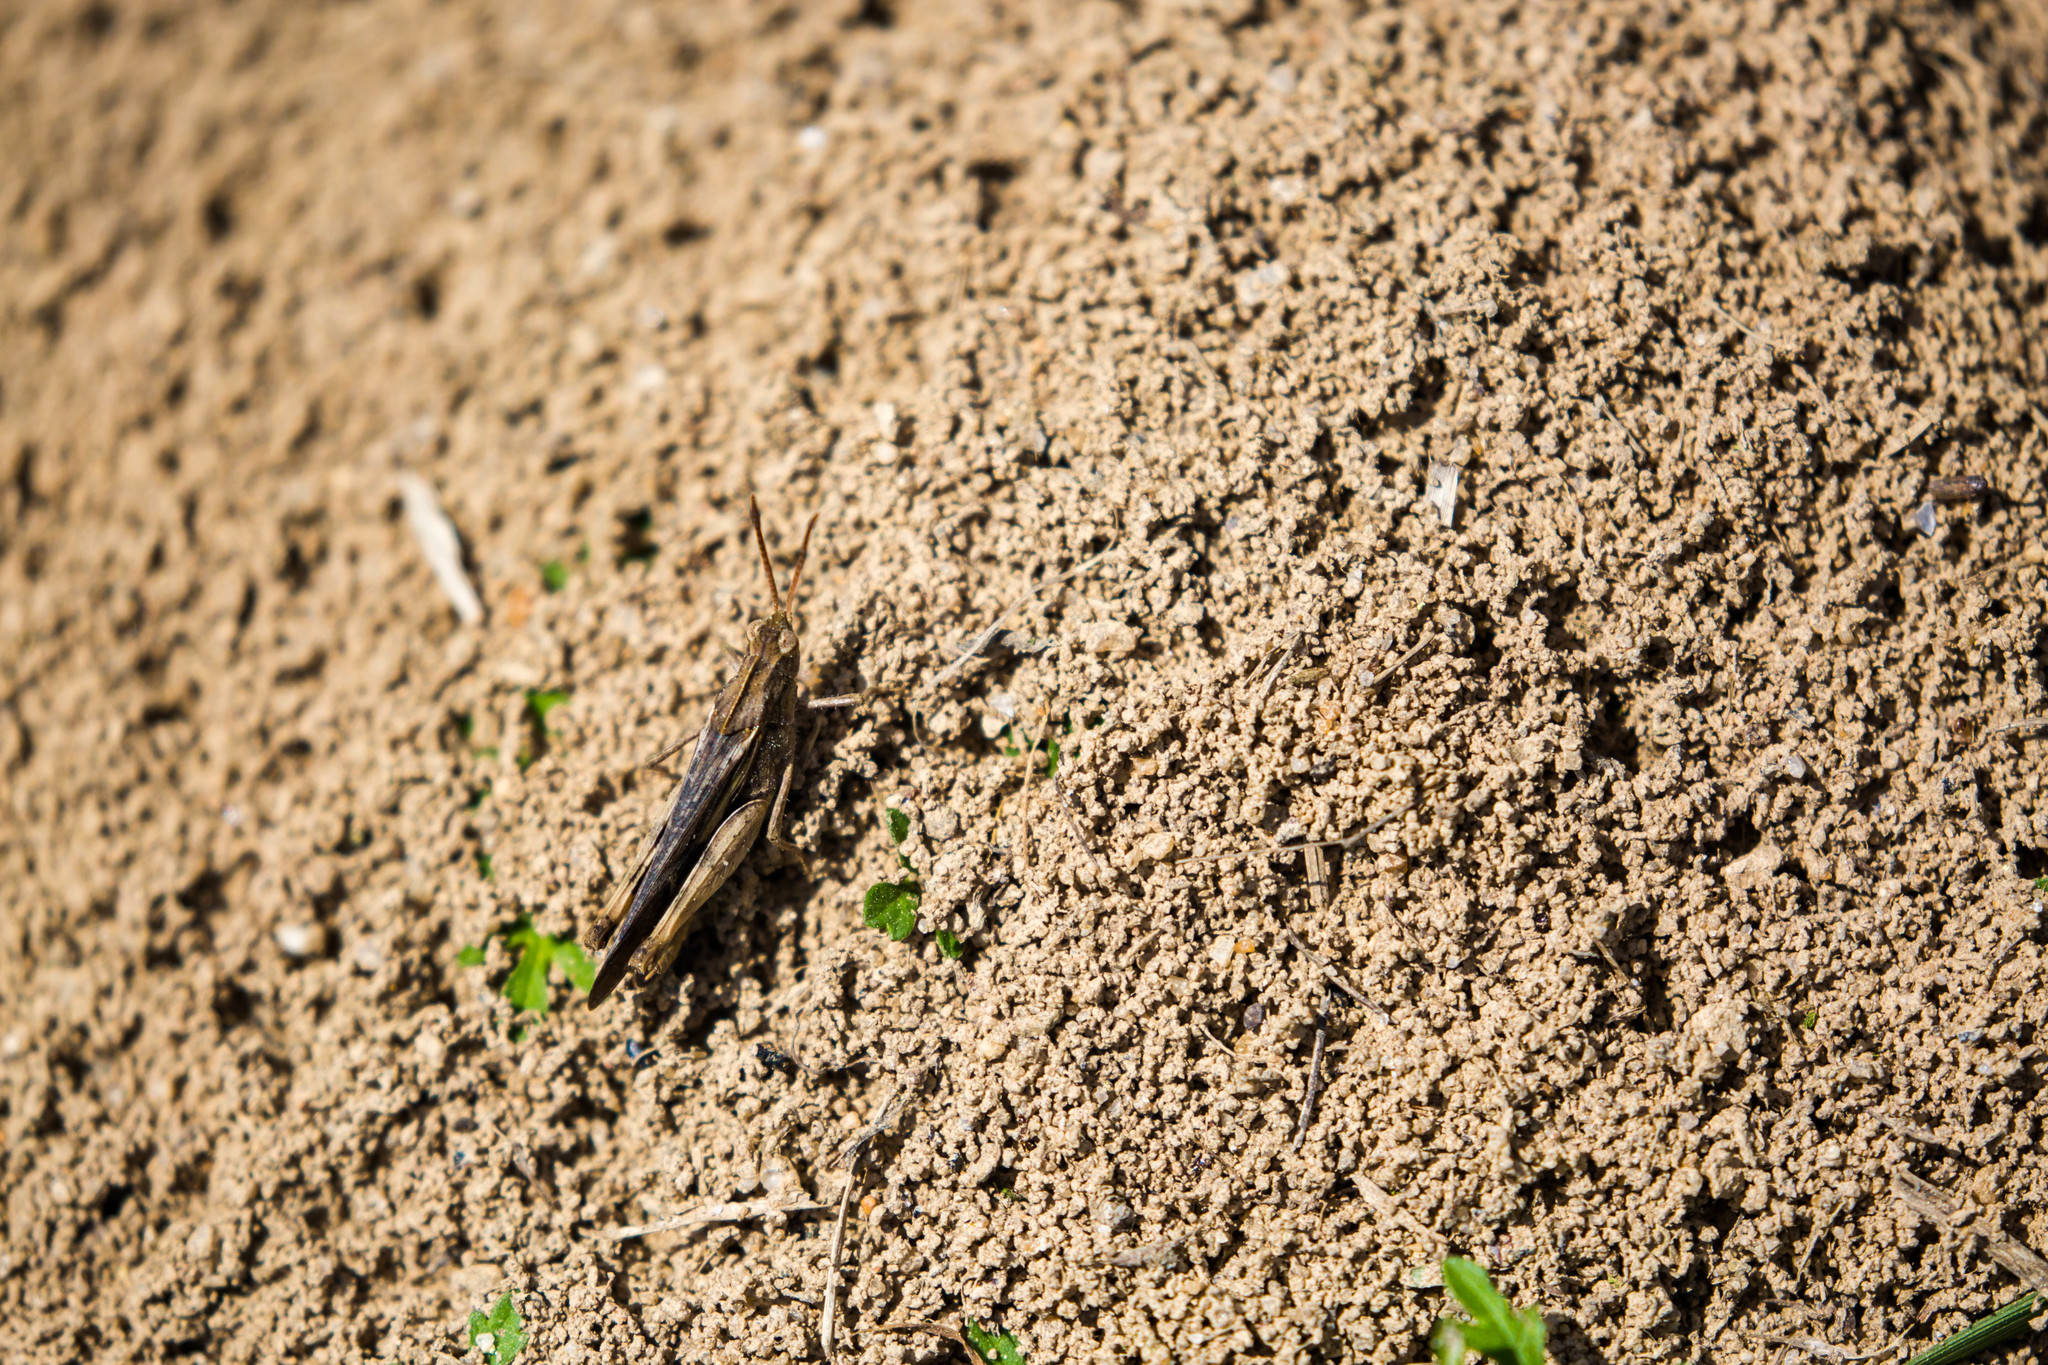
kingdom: Animalia
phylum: Arthropoda
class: Insecta
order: Orthoptera
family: Acrididae
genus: Chortophaga
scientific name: Chortophaga viridifasciata
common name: Green-striped grasshopper
